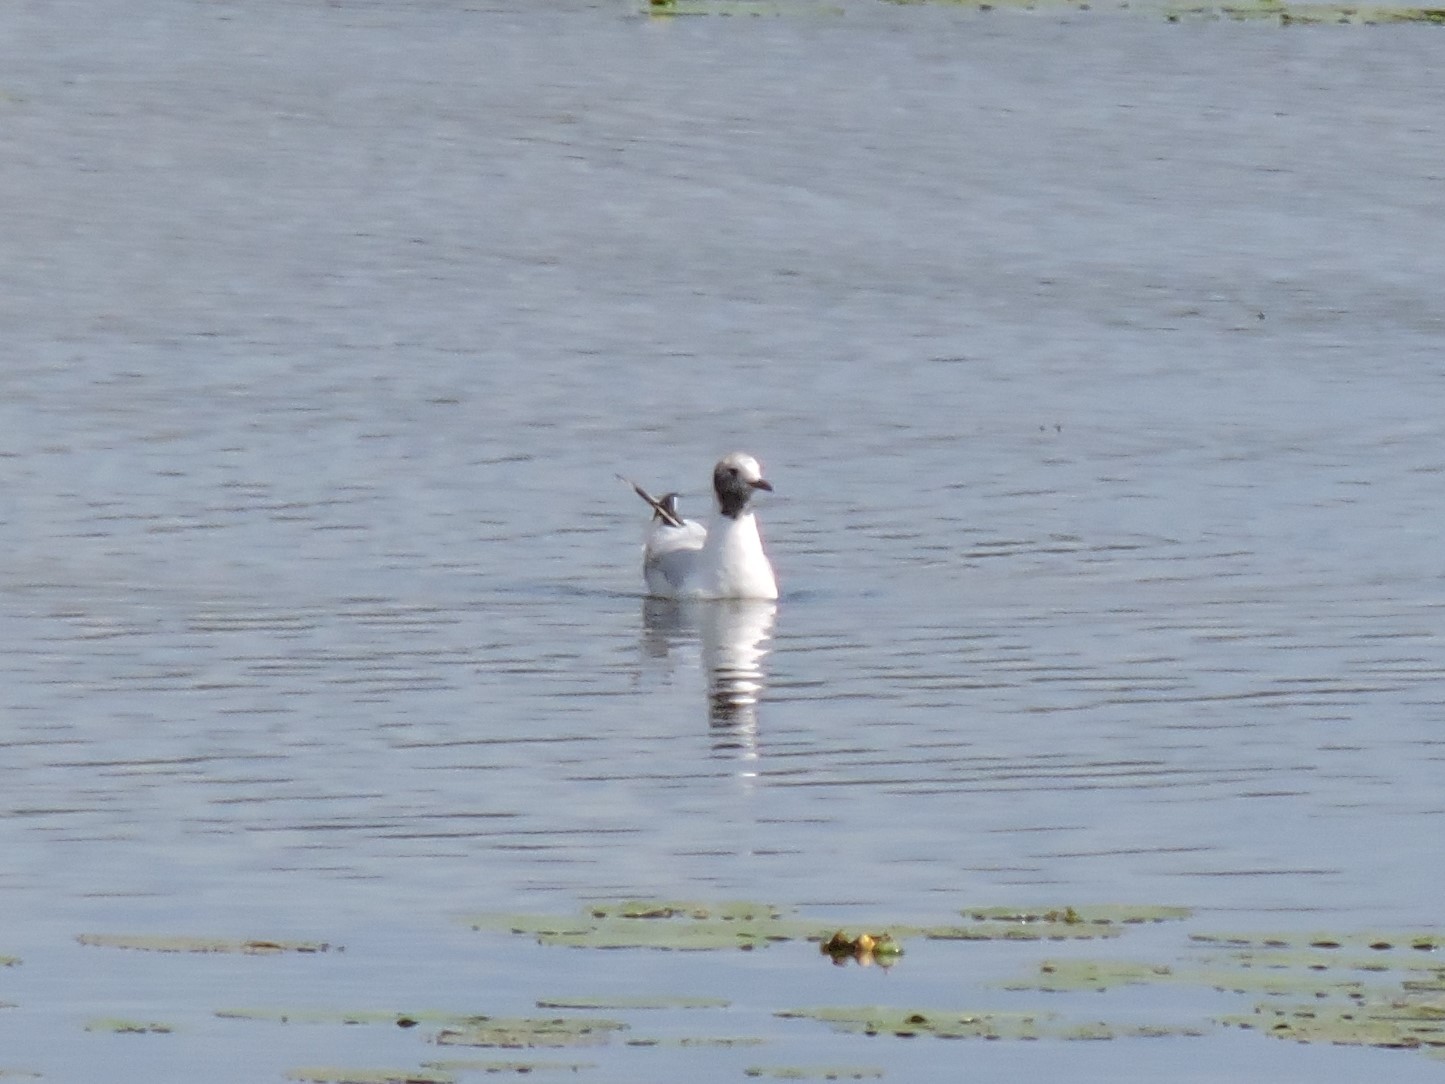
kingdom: Animalia
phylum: Chordata
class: Aves
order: Charadriiformes
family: Laridae
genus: Chroicocephalus
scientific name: Chroicocephalus ridibundus
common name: Black-headed gull
